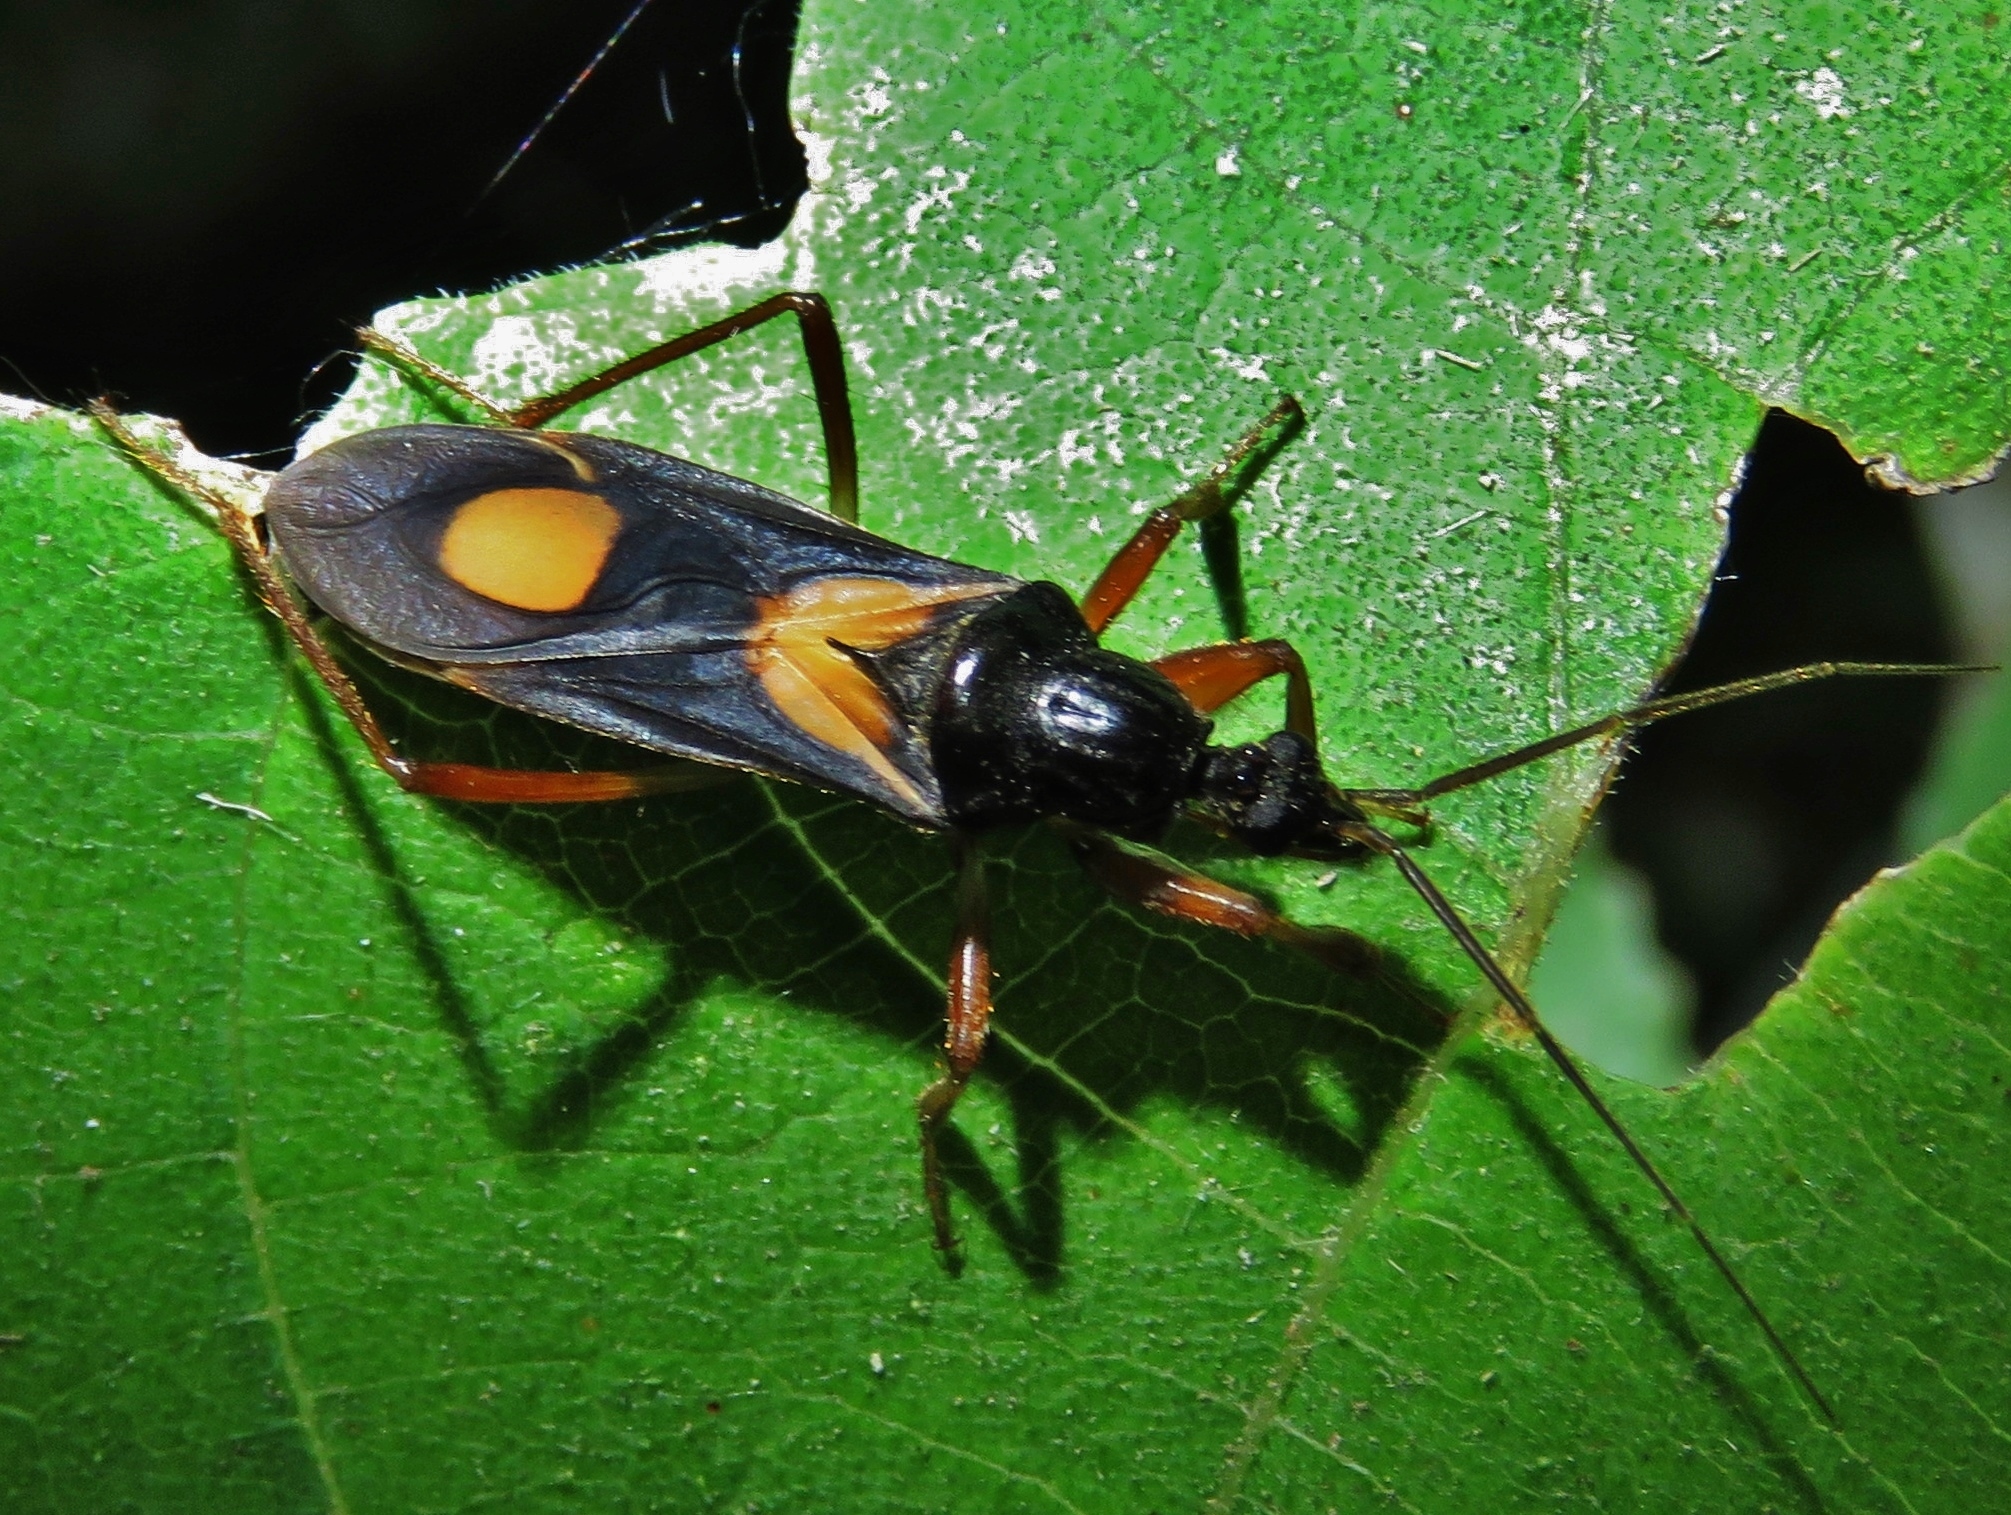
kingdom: Animalia
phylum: Arthropoda
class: Insecta
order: Hemiptera
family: Reduviidae
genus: Rasahus
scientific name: Rasahus hamatus
